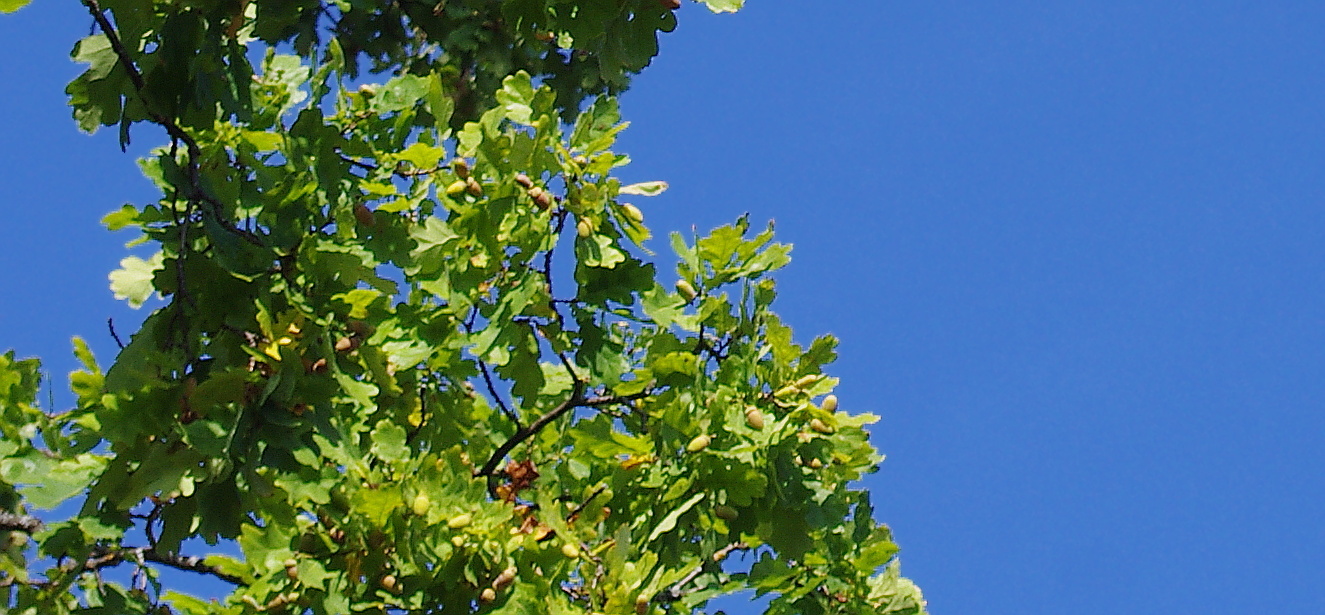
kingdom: Plantae
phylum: Tracheophyta
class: Magnoliopsida
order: Fagales
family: Fagaceae
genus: Quercus
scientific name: Quercus robur
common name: Pedunculate oak
